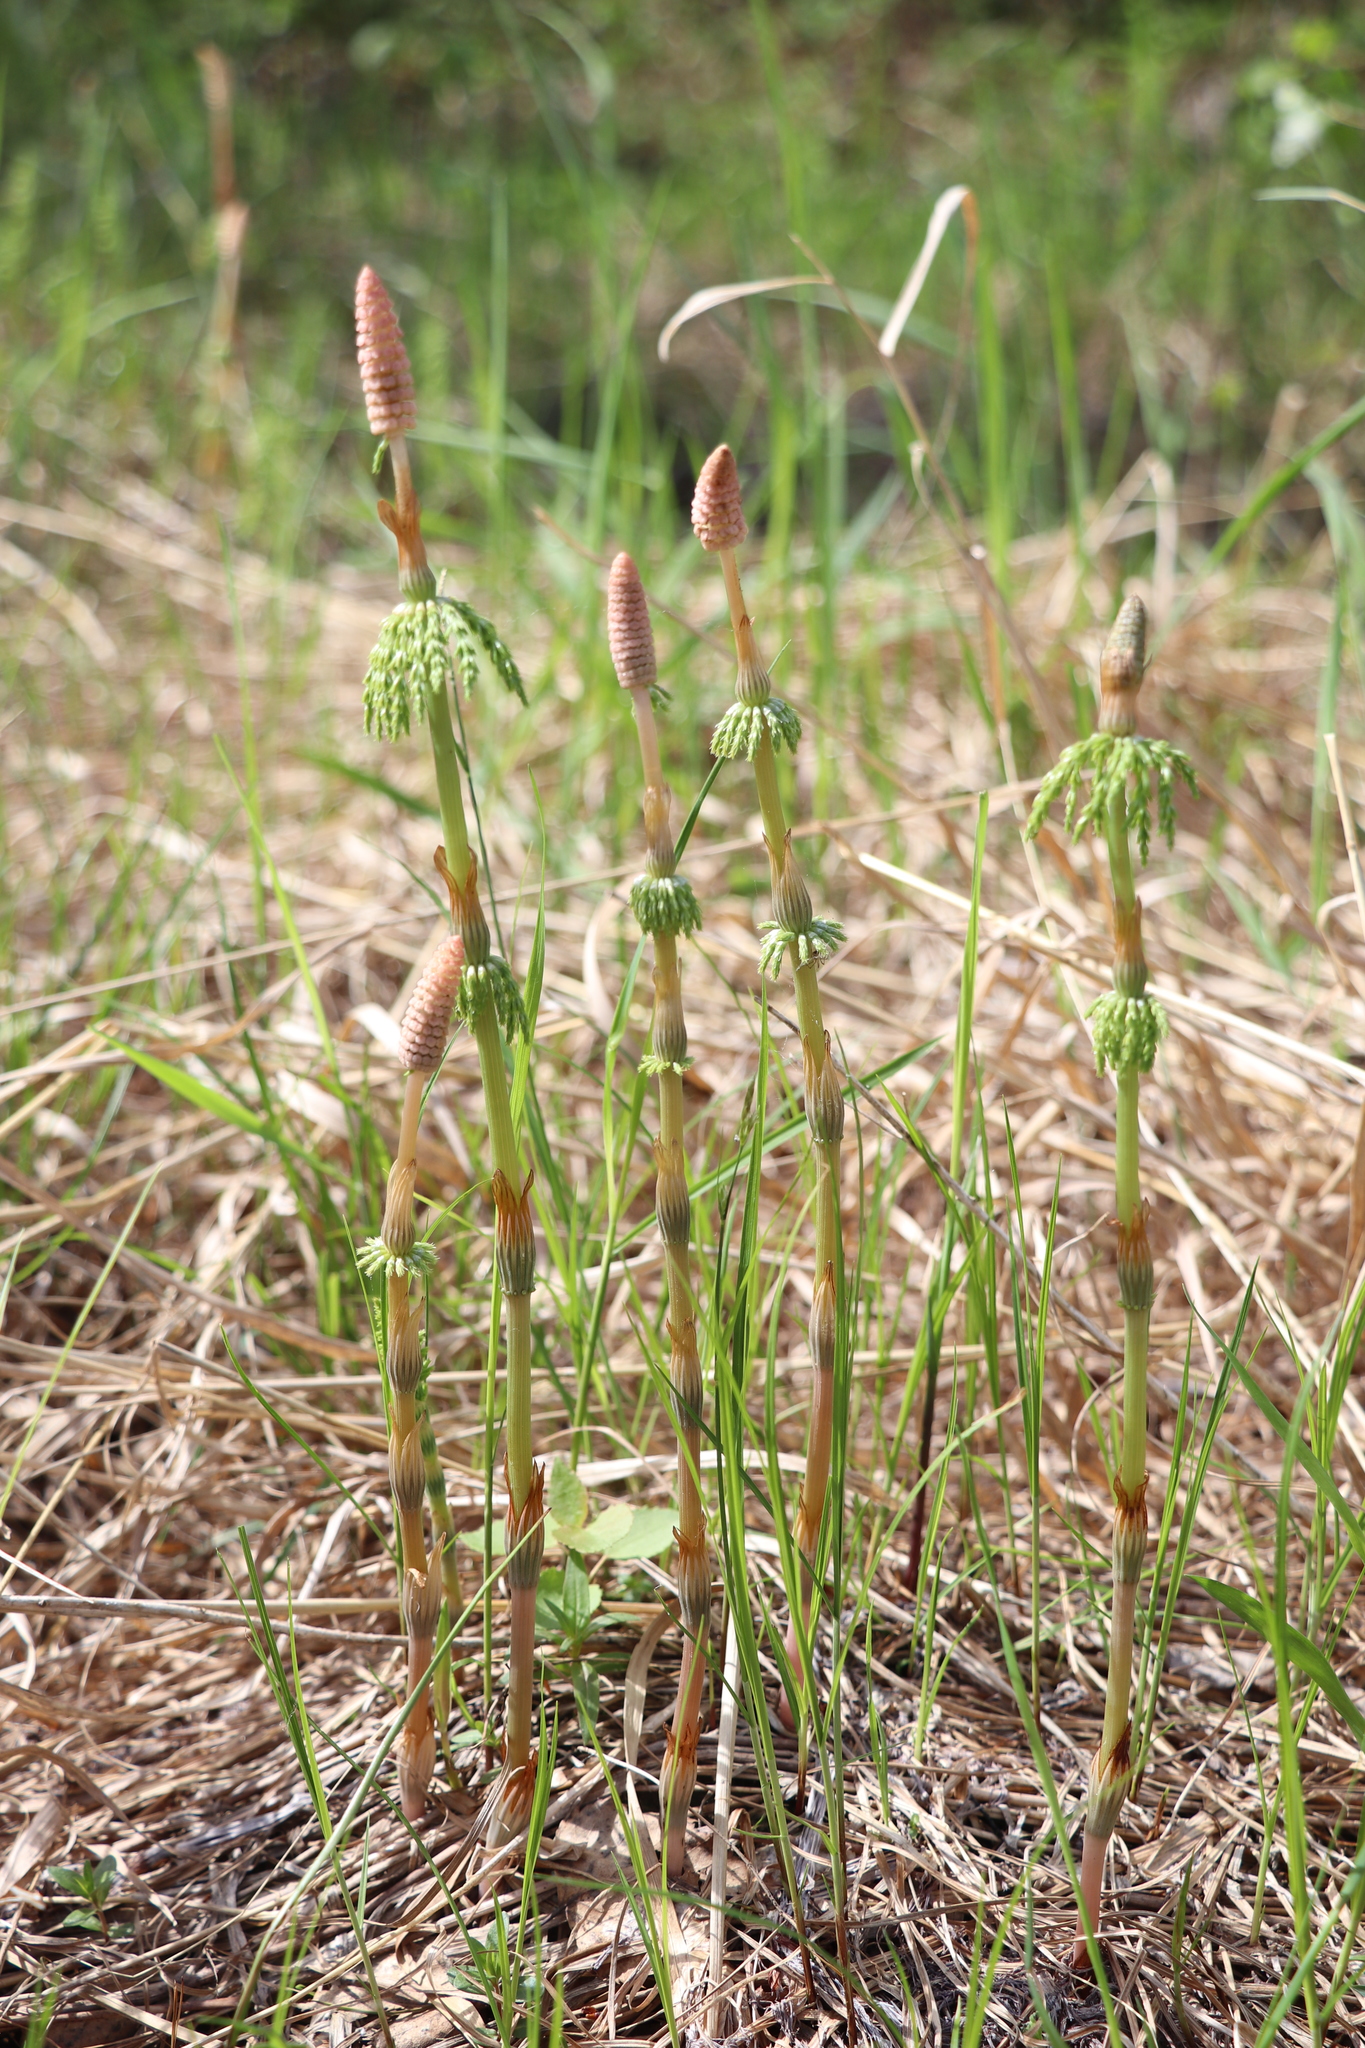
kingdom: Plantae
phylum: Tracheophyta
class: Polypodiopsida
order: Equisetales
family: Equisetaceae
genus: Equisetum
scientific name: Equisetum sylvaticum
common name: Wood horsetail
